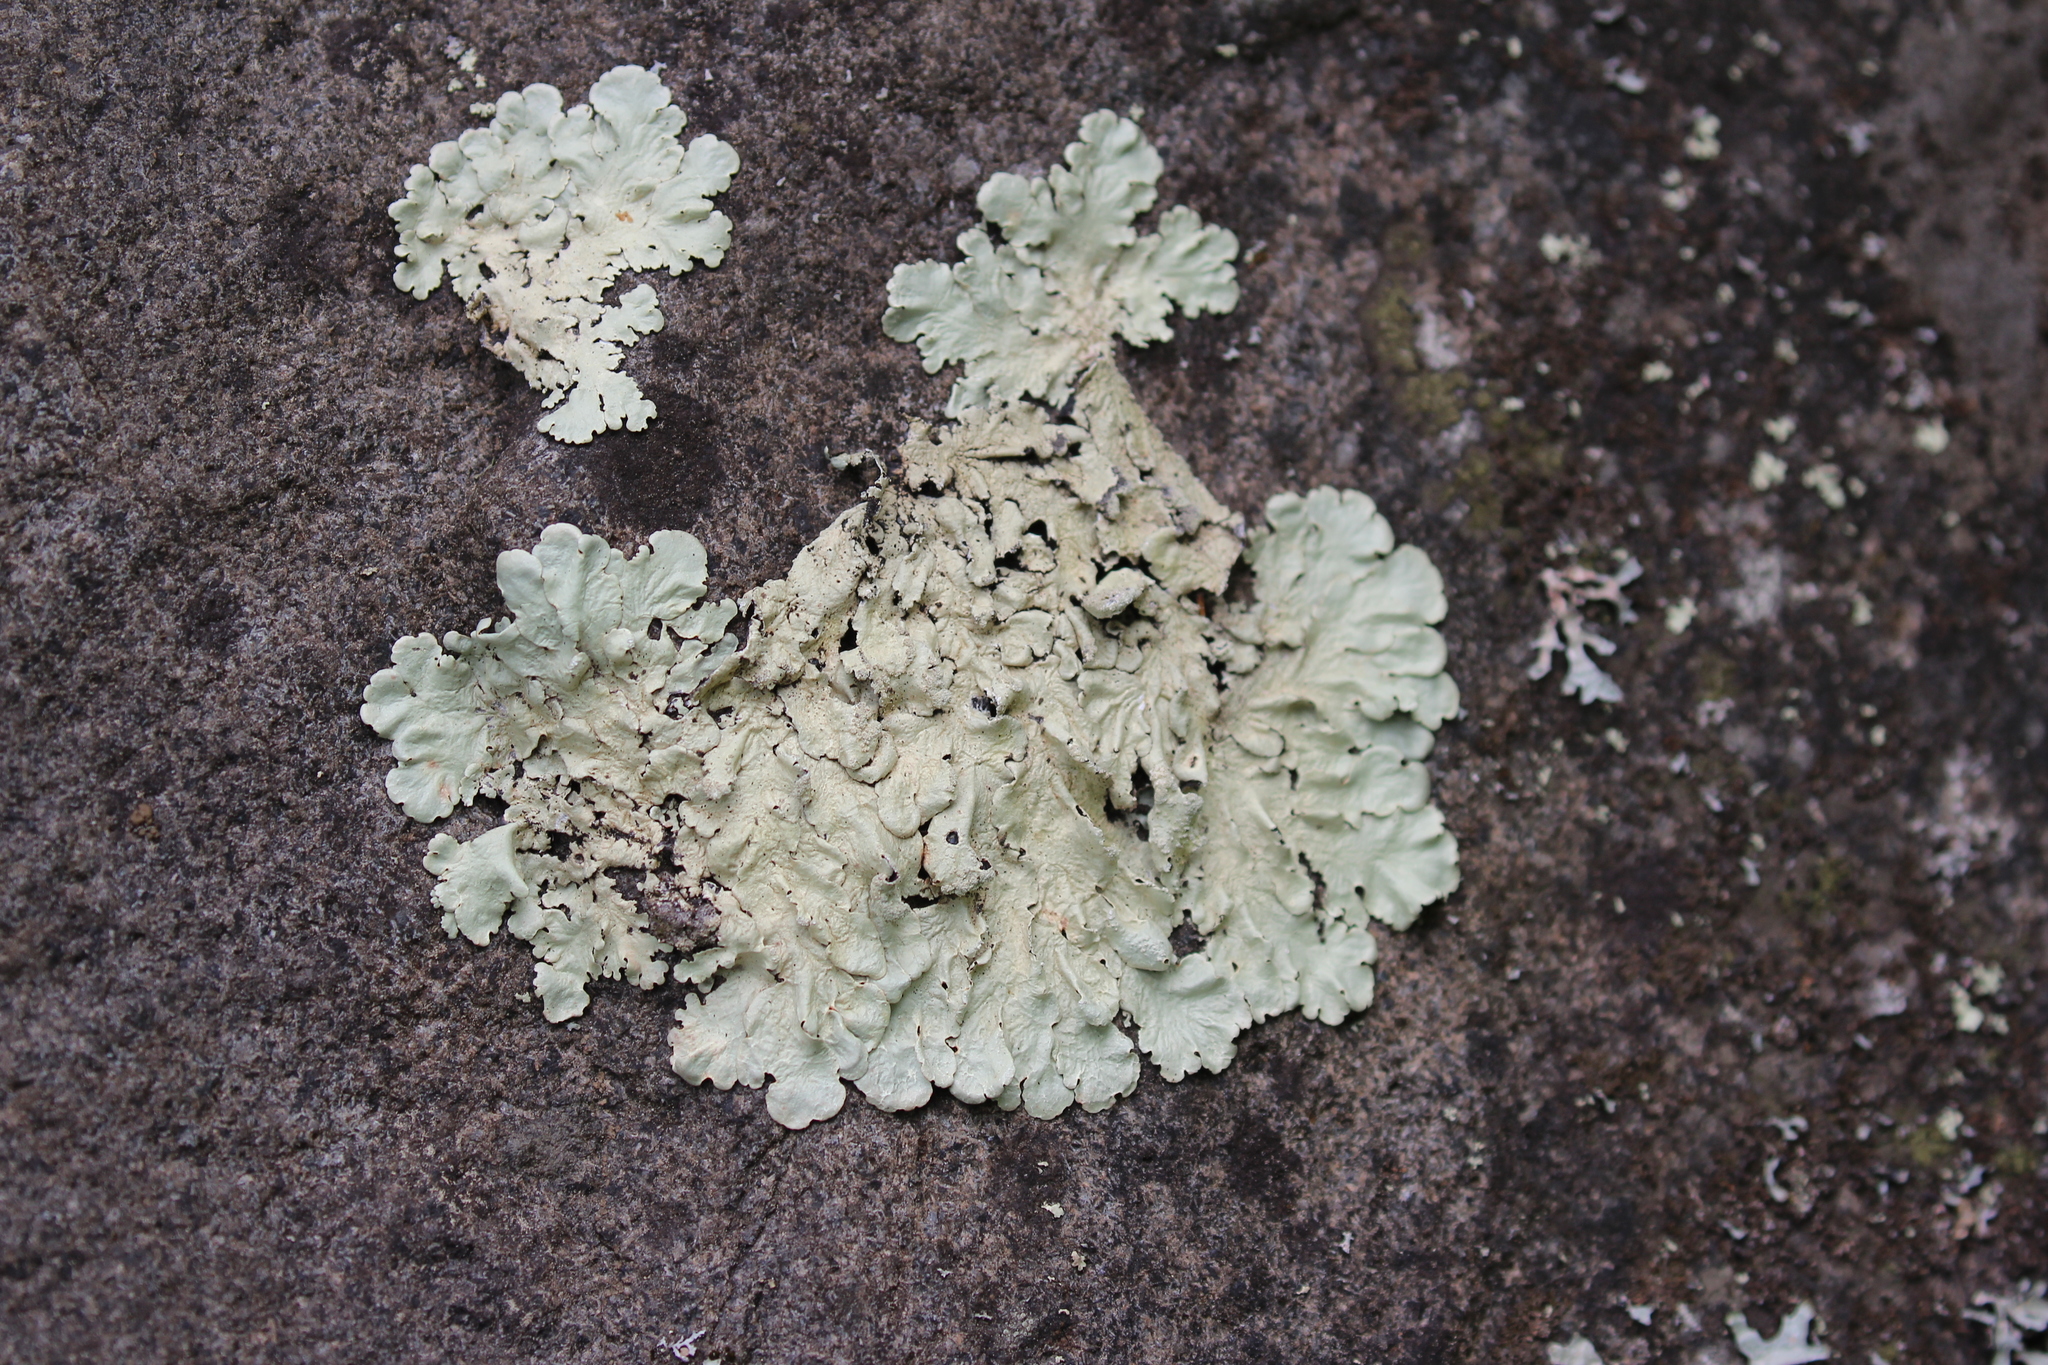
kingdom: Fungi
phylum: Ascomycota
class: Lecanoromycetes
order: Lecanorales
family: Parmeliaceae
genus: Flavoparmelia
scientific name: Flavoparmelia caperata
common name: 40-mile per hour lichen
